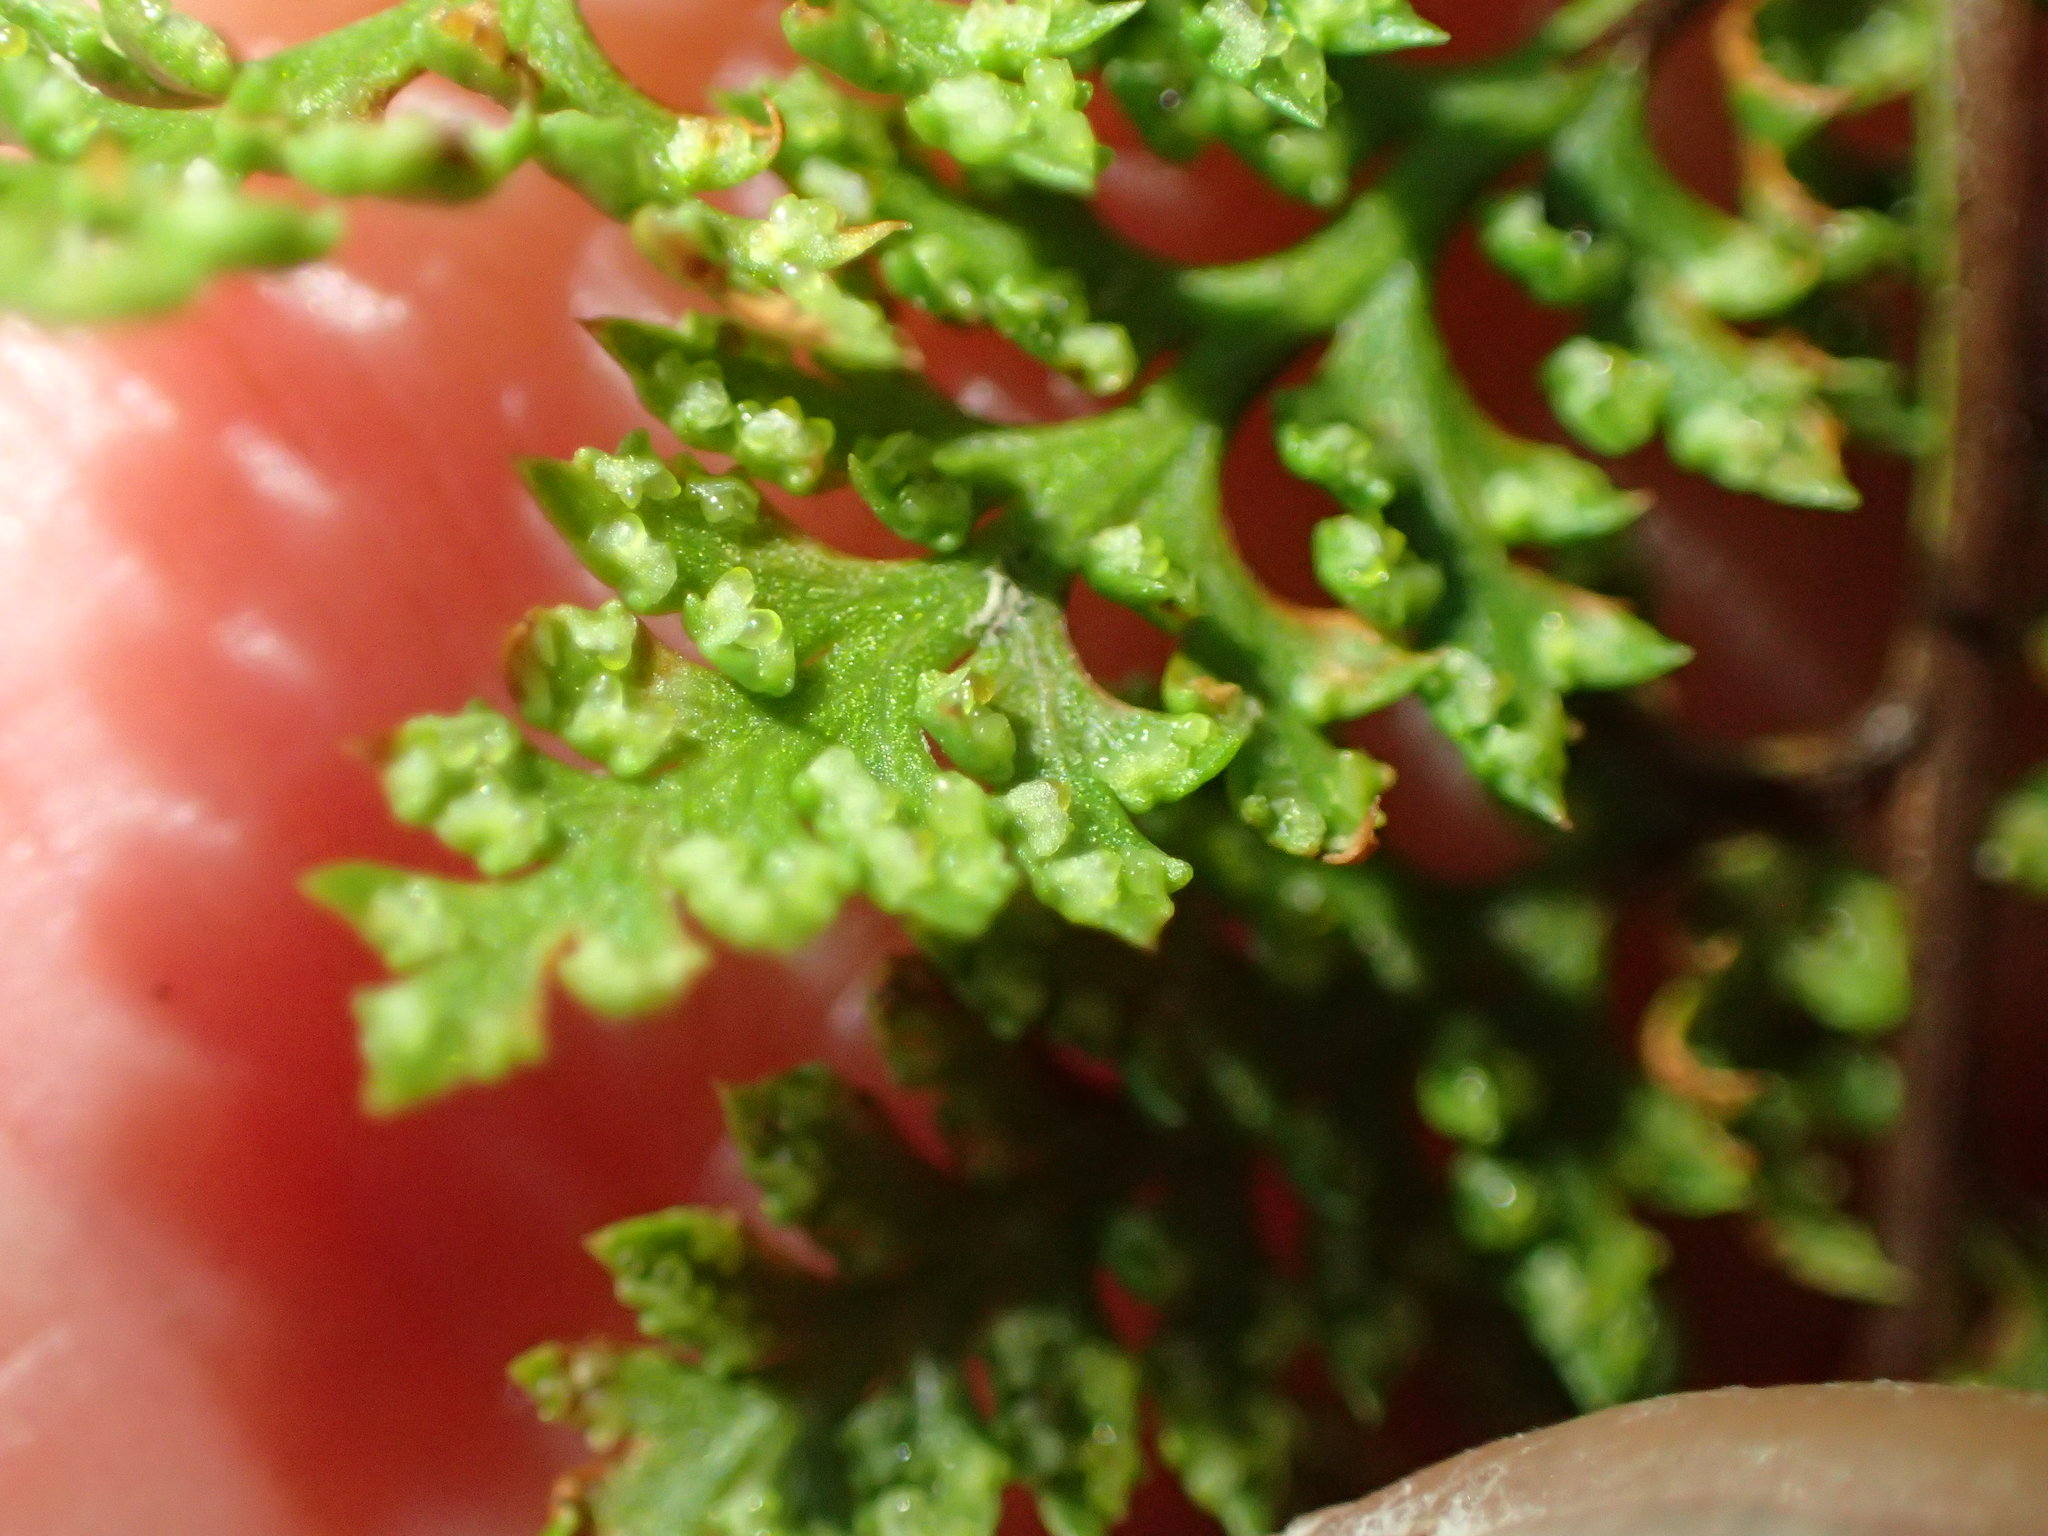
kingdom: Plantae
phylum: Tracheophyta
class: Polypodiopsida
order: Polypodiales
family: Pteridaceae
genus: Aspidotis
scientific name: Aspidotis californica
